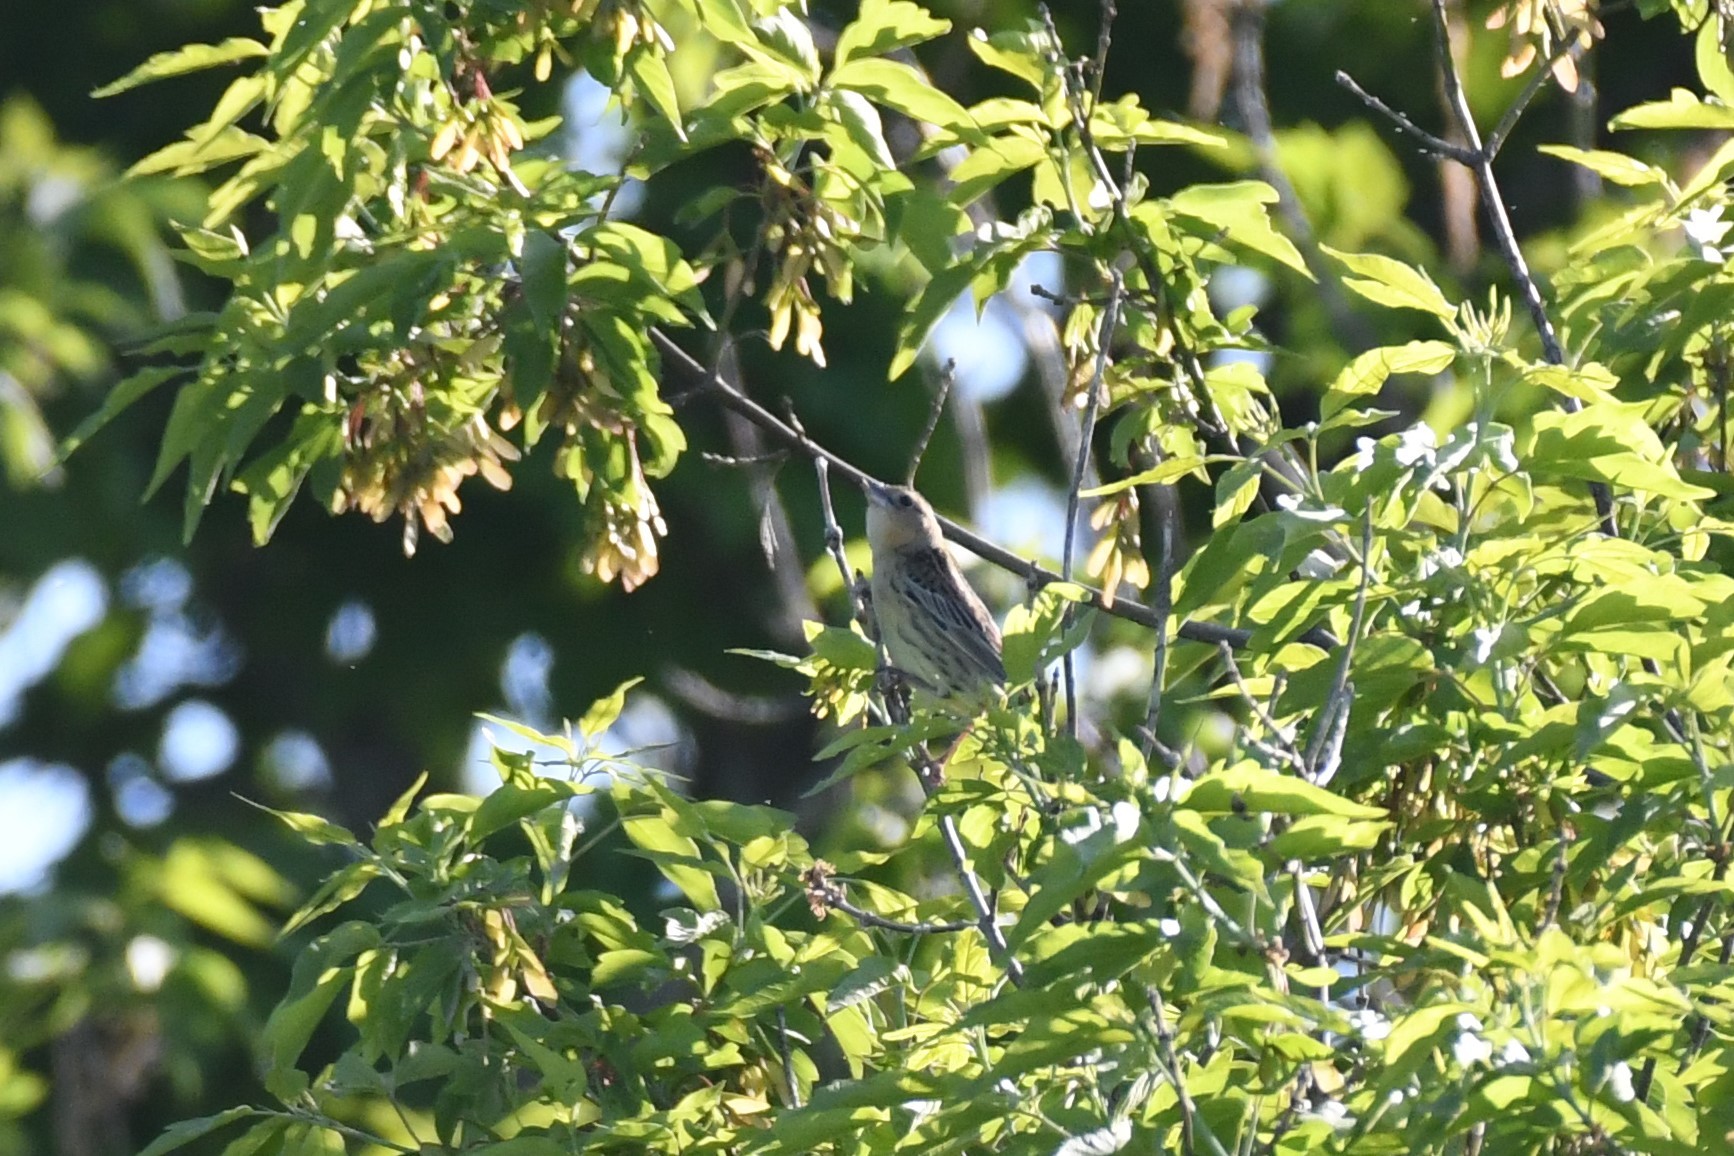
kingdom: Animalia
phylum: Chordata
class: Aves
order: Passeriformes
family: Icteridae
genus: Dolichonyx
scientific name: Dolichonyx oryzivorus
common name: Bobolink
